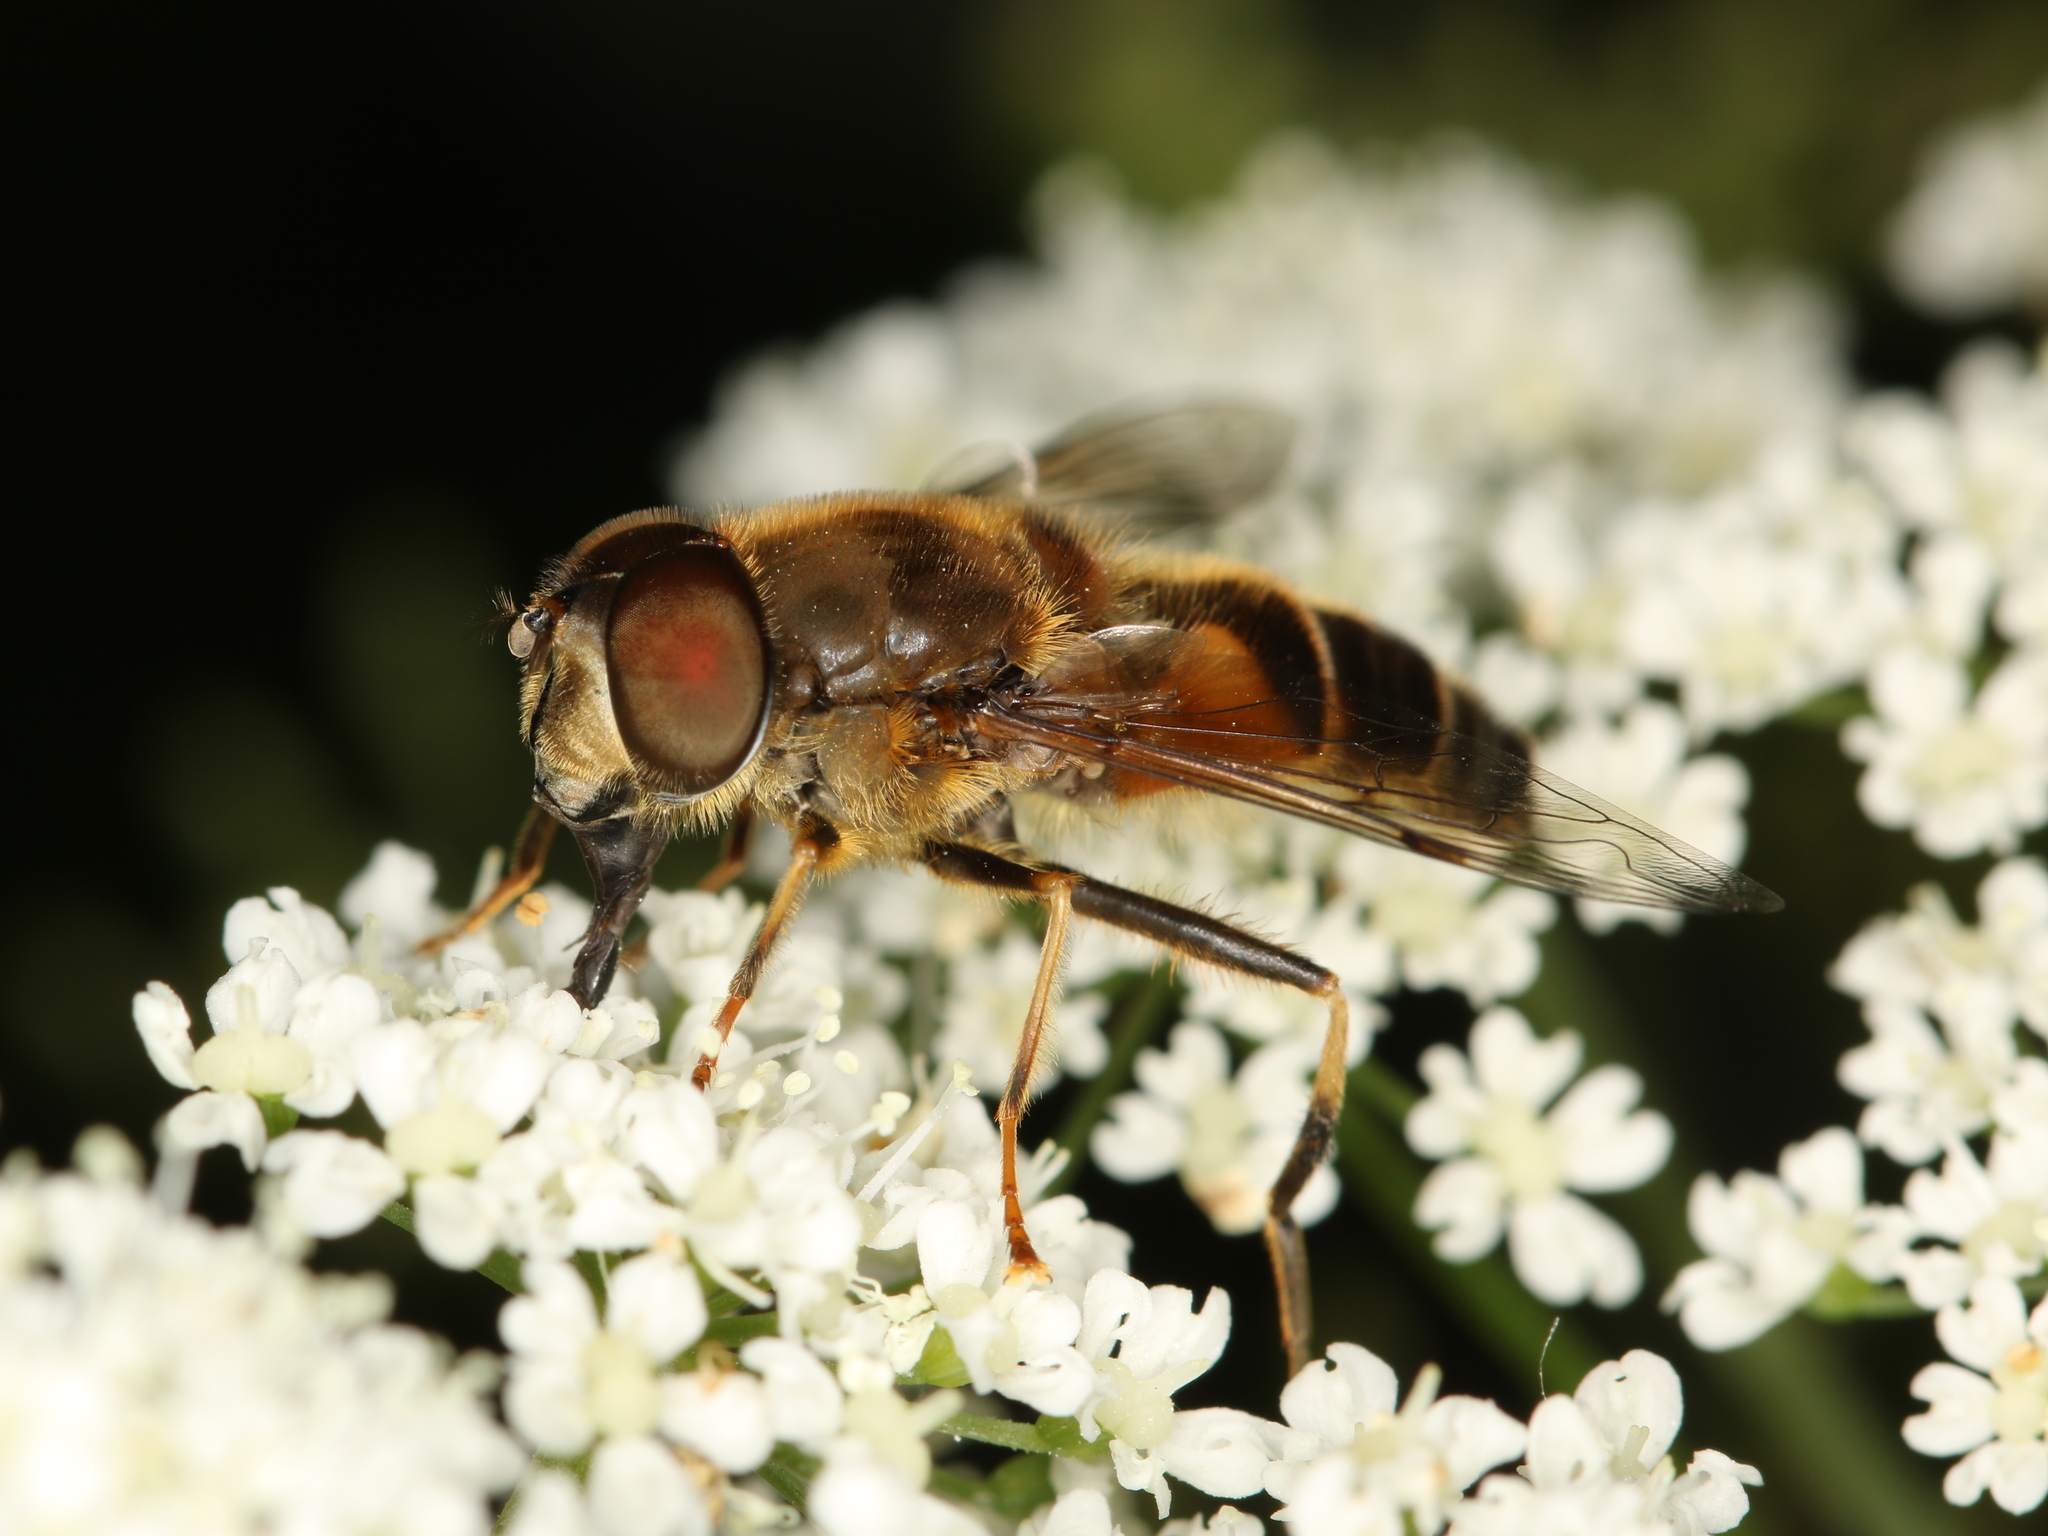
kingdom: Animalia
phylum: Arthropoda
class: Insecta
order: Diptera
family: Syrphidae
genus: Eristalis
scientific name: Eristalis pertinax
